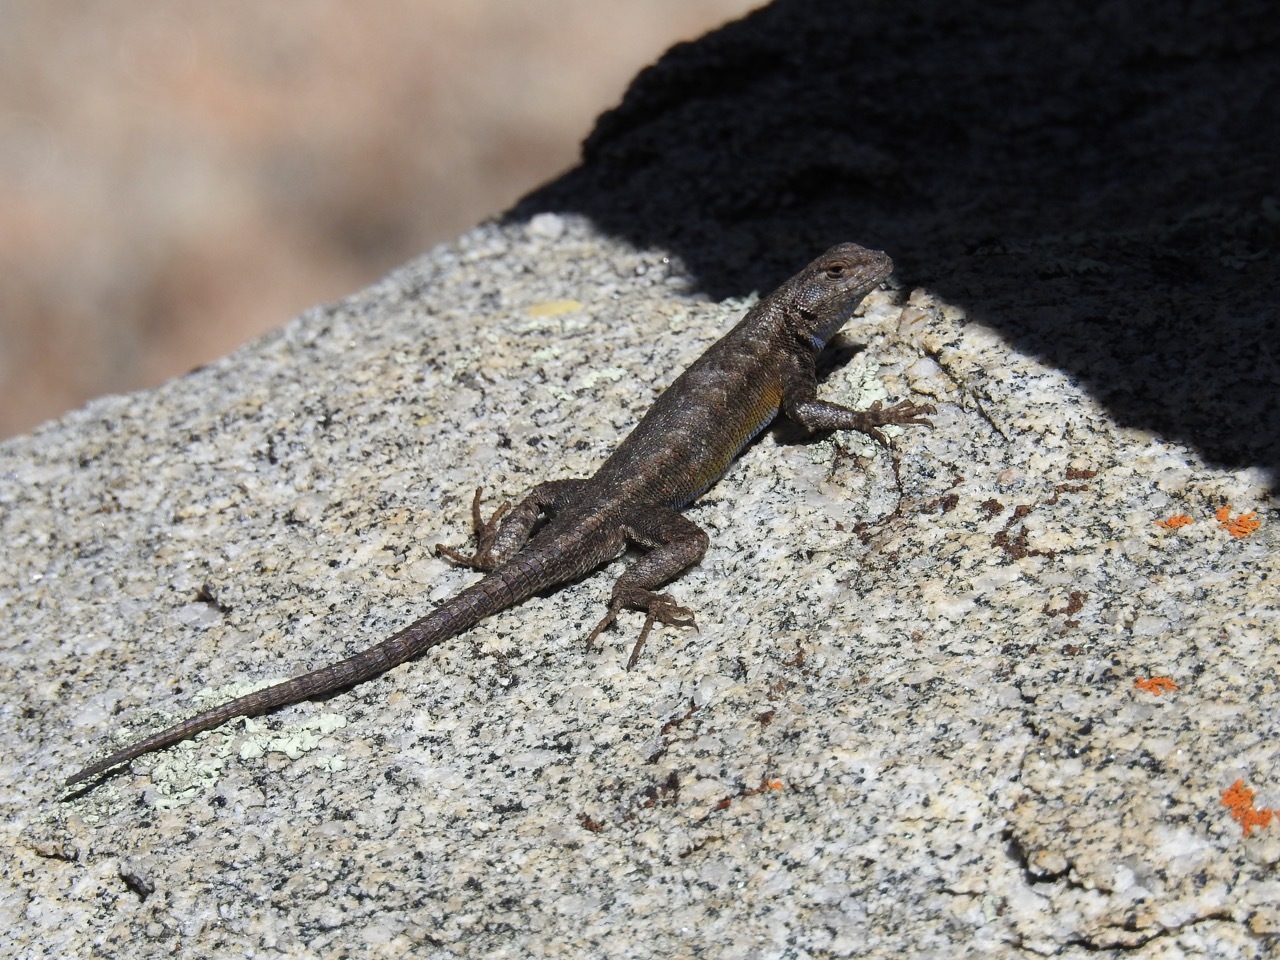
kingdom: Animalia
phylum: Chordata
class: Squamata
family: Phrynosomatidae
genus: Sceloporus
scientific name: Sceloporus graciosus
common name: Sagebrush lizard
